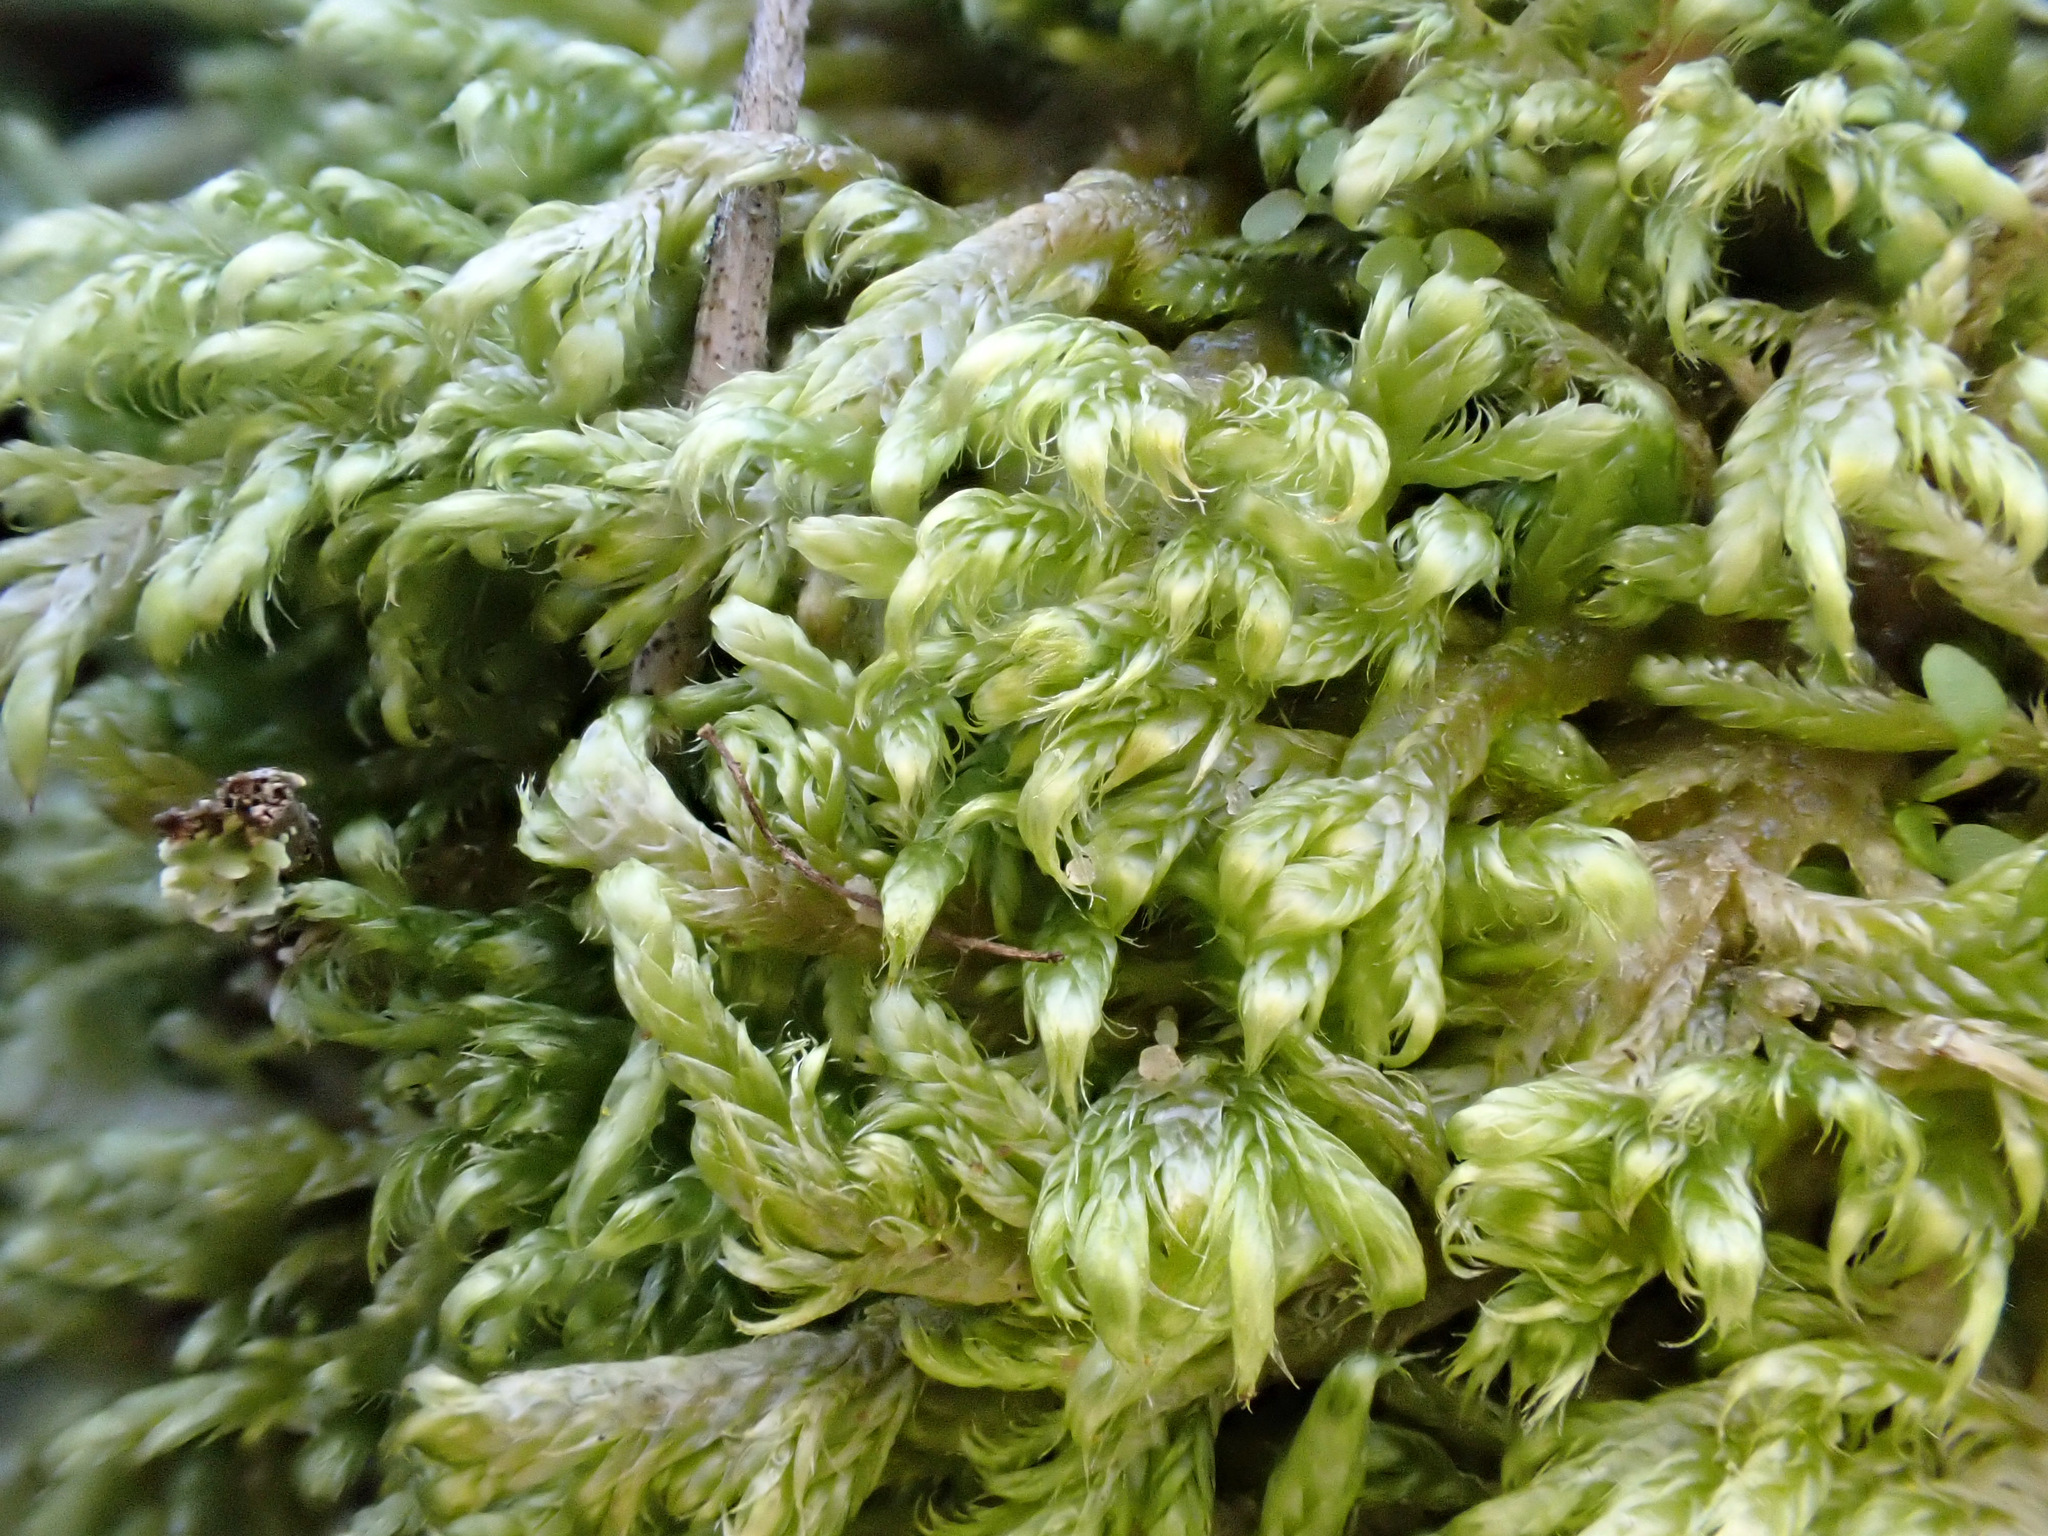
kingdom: Plantae
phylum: Bryophyta
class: Bryopsida
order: Hypnales
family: Hypnaceae
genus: Hypnum
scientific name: Hypnum cupressiforme
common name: Cypress-leaved plait-moss
